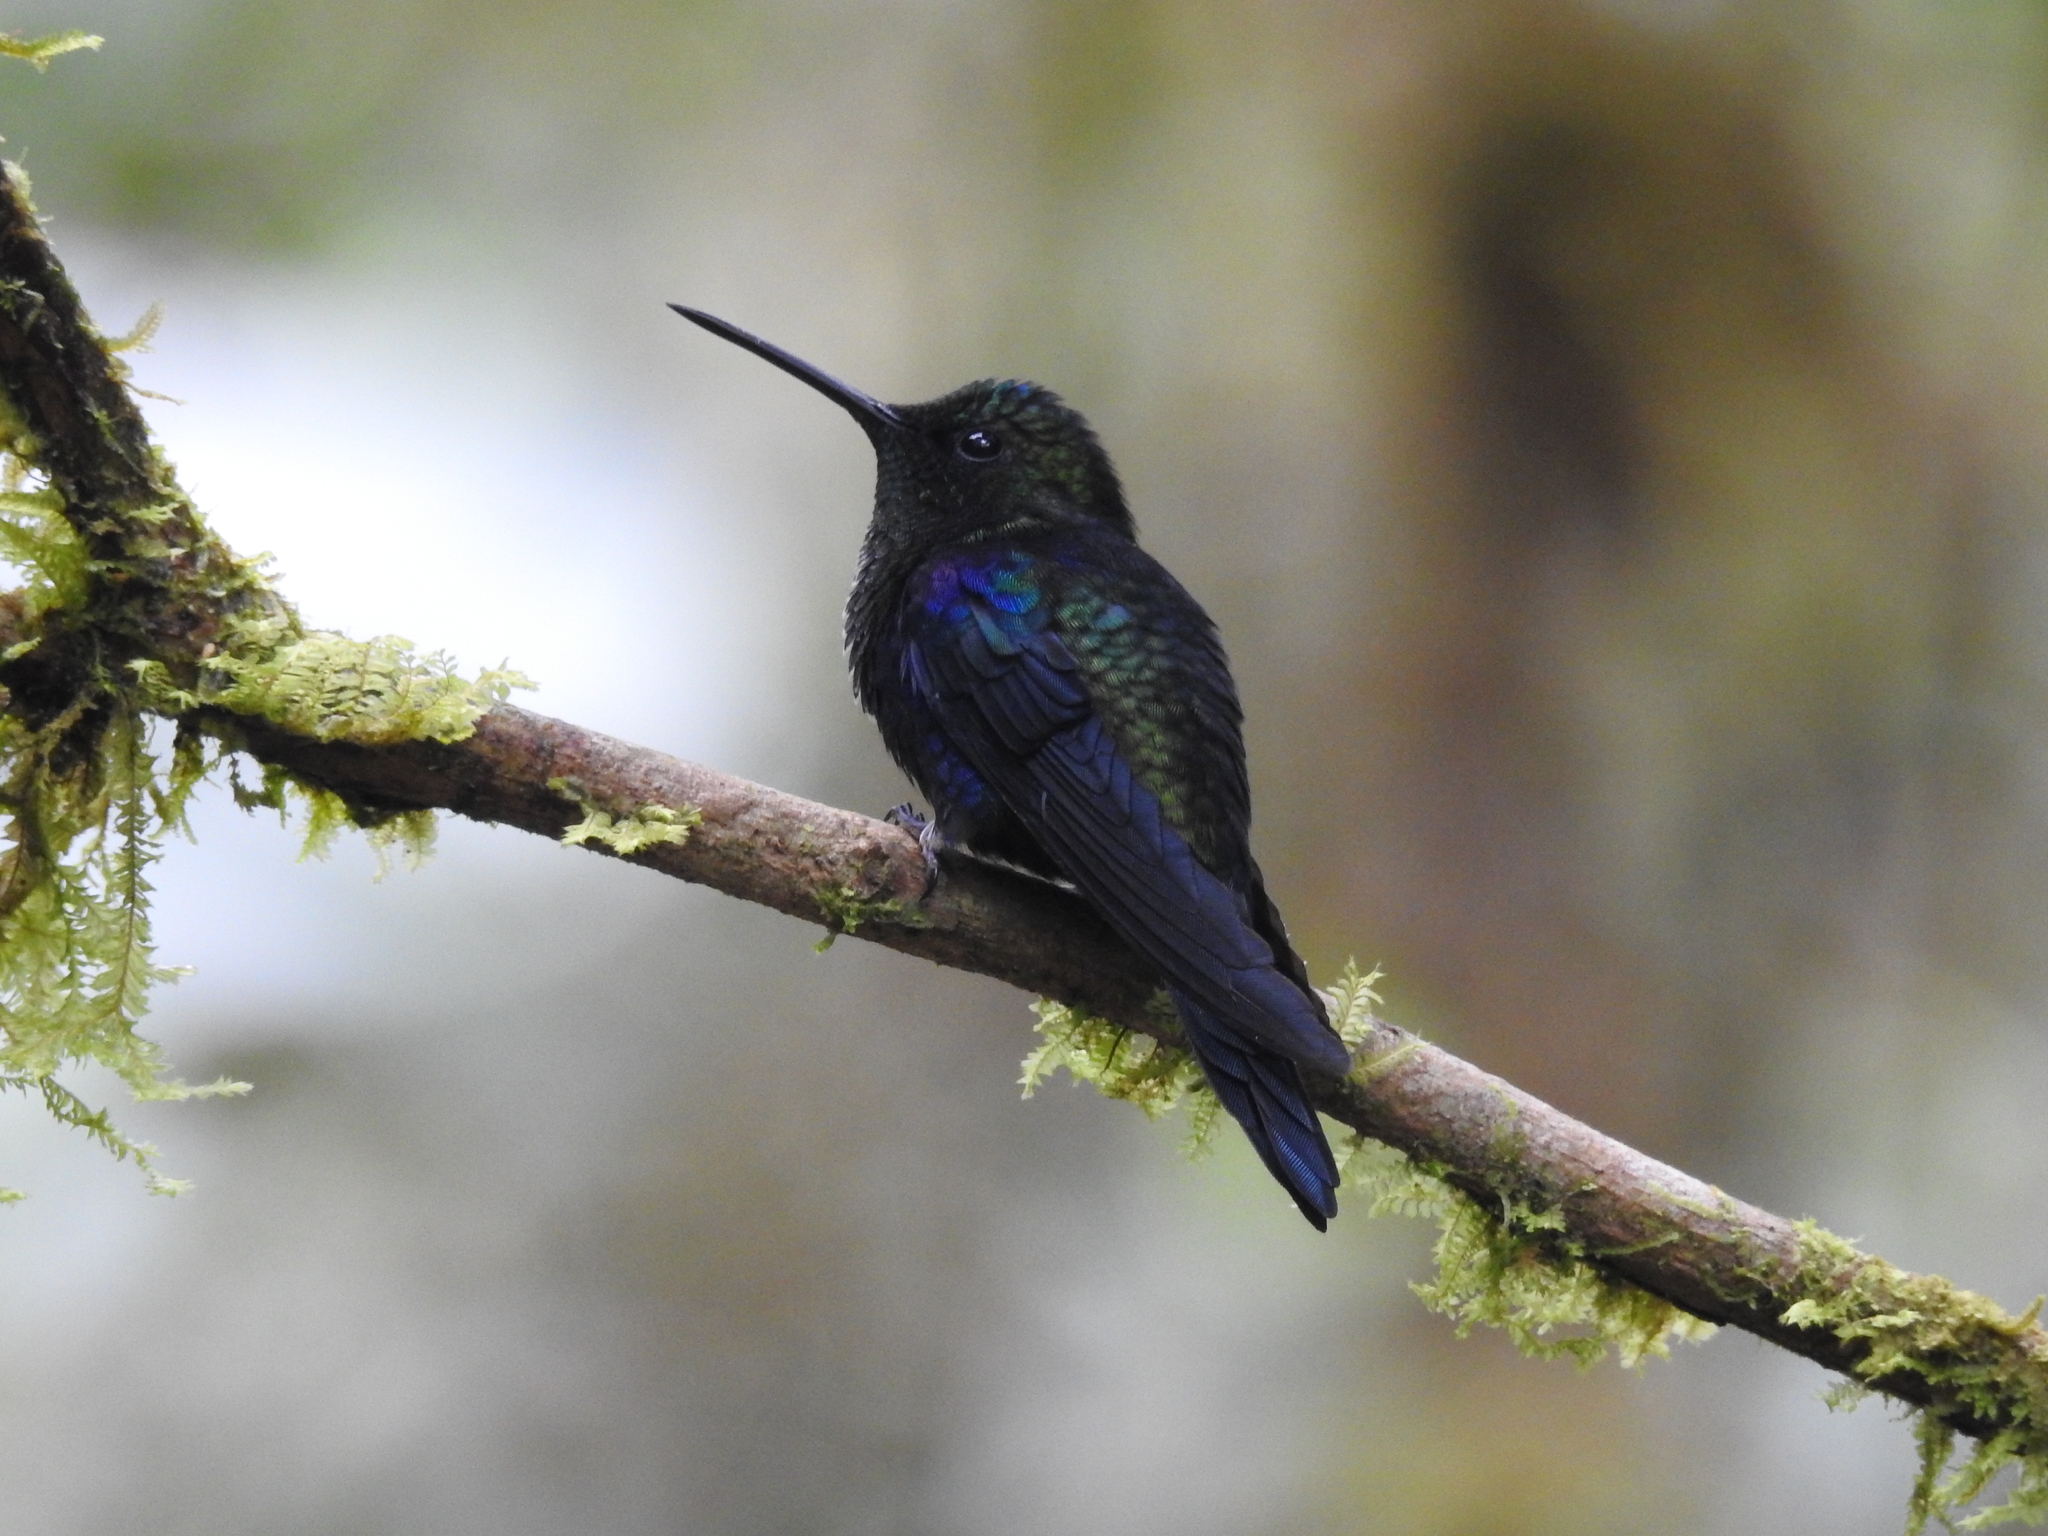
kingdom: Animalia
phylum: Chordata
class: Aves
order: Apodiformes
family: Trochilidae
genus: Thalurania
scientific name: Thalurania colombica
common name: Crowned woodnymph
